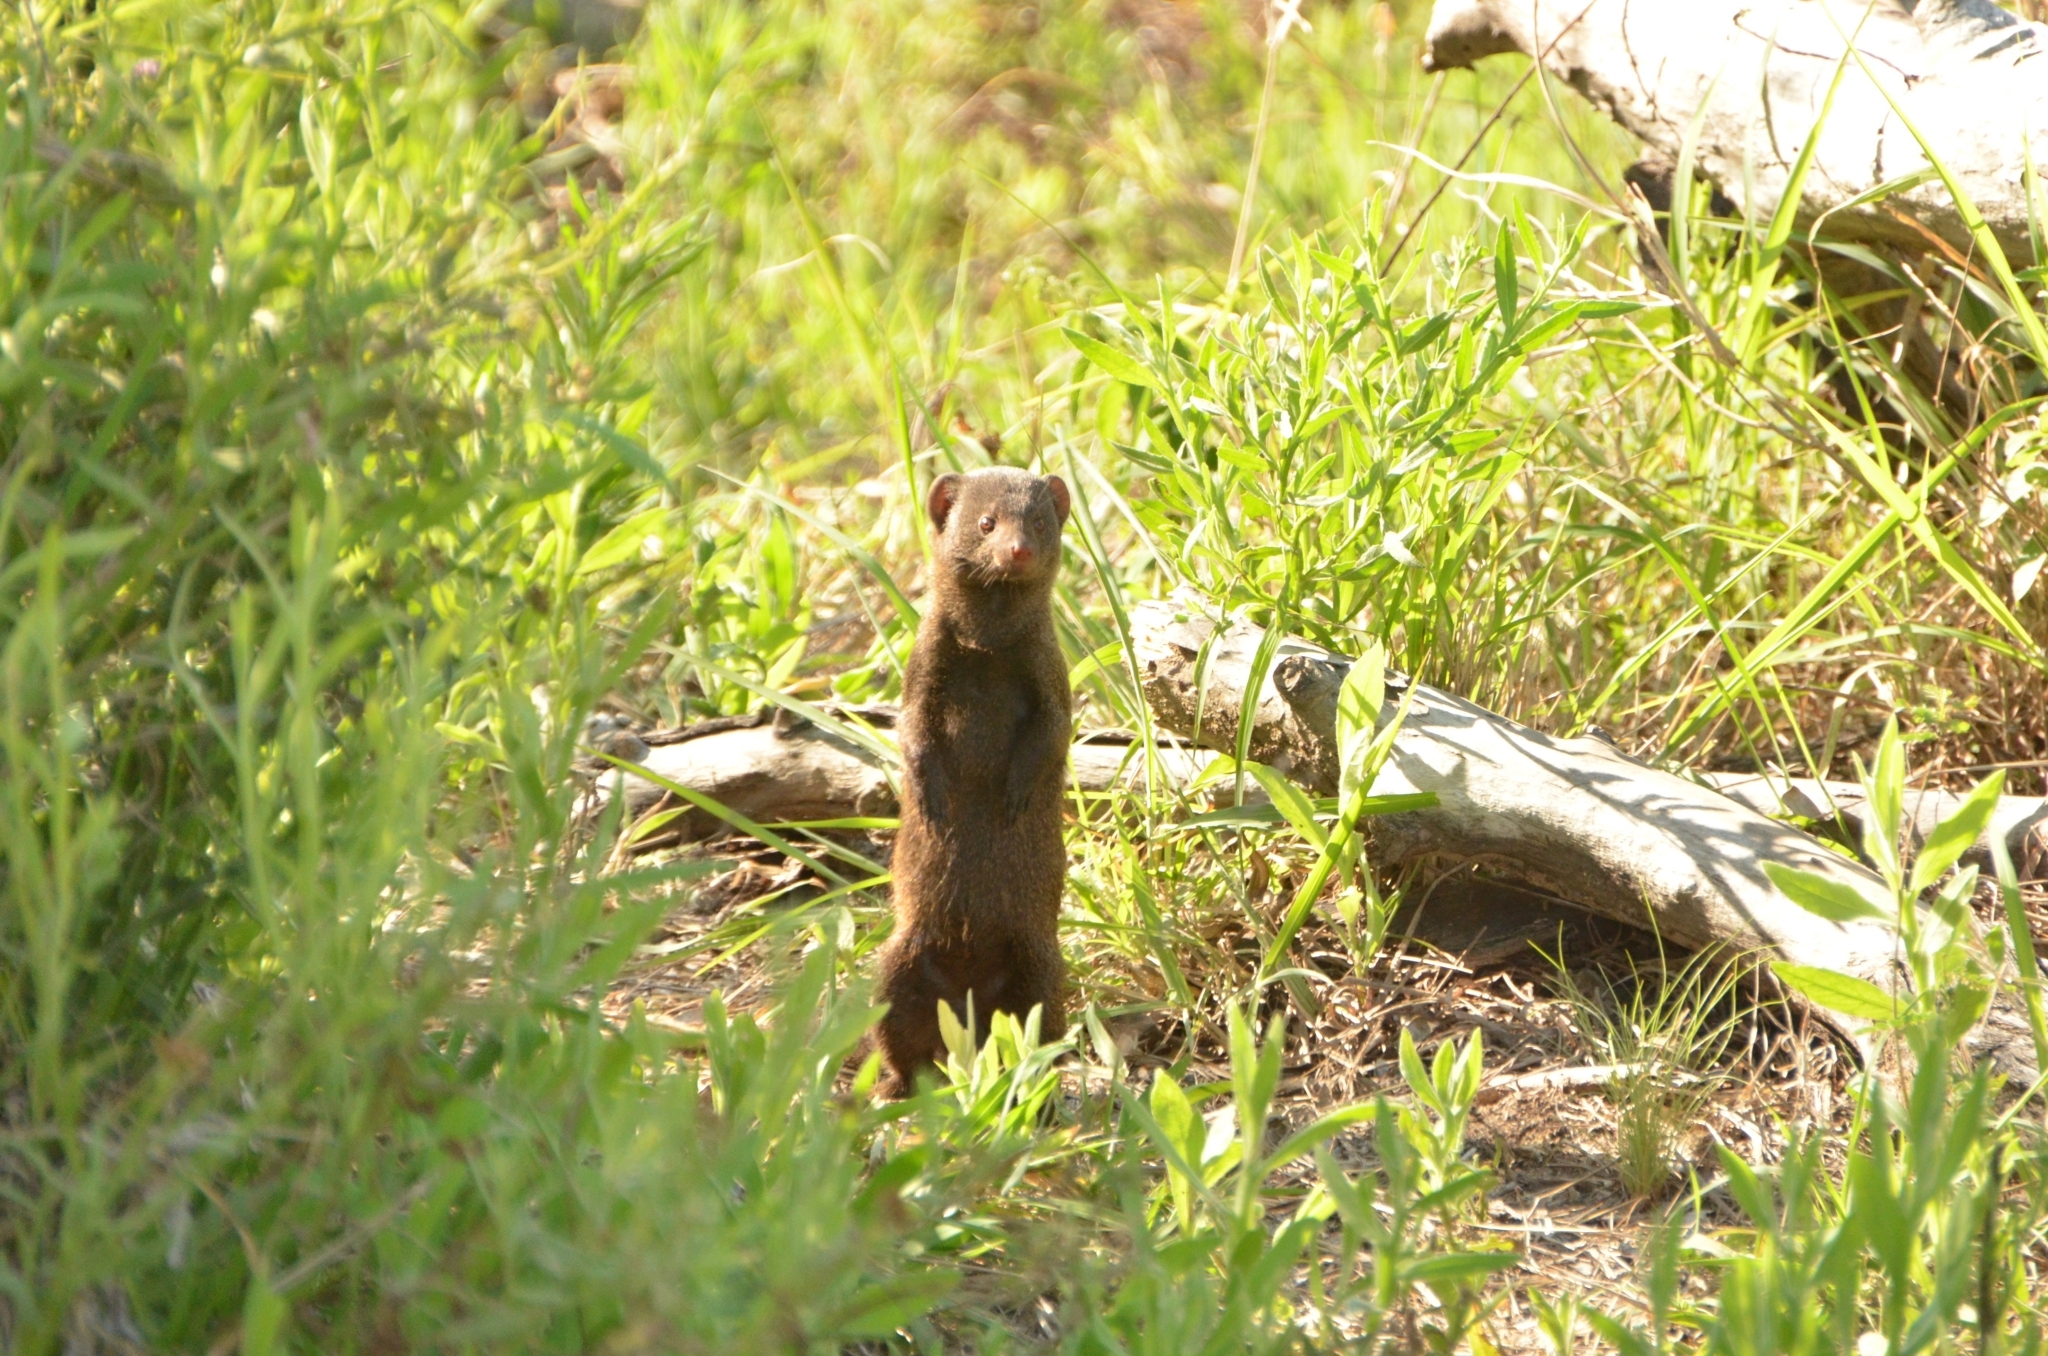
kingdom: Animalia
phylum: Chordata
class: Mammalia
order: Carnivora
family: Herpestidae
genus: Helogale
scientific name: Helogale parvula
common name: Common dwarf mongoose
